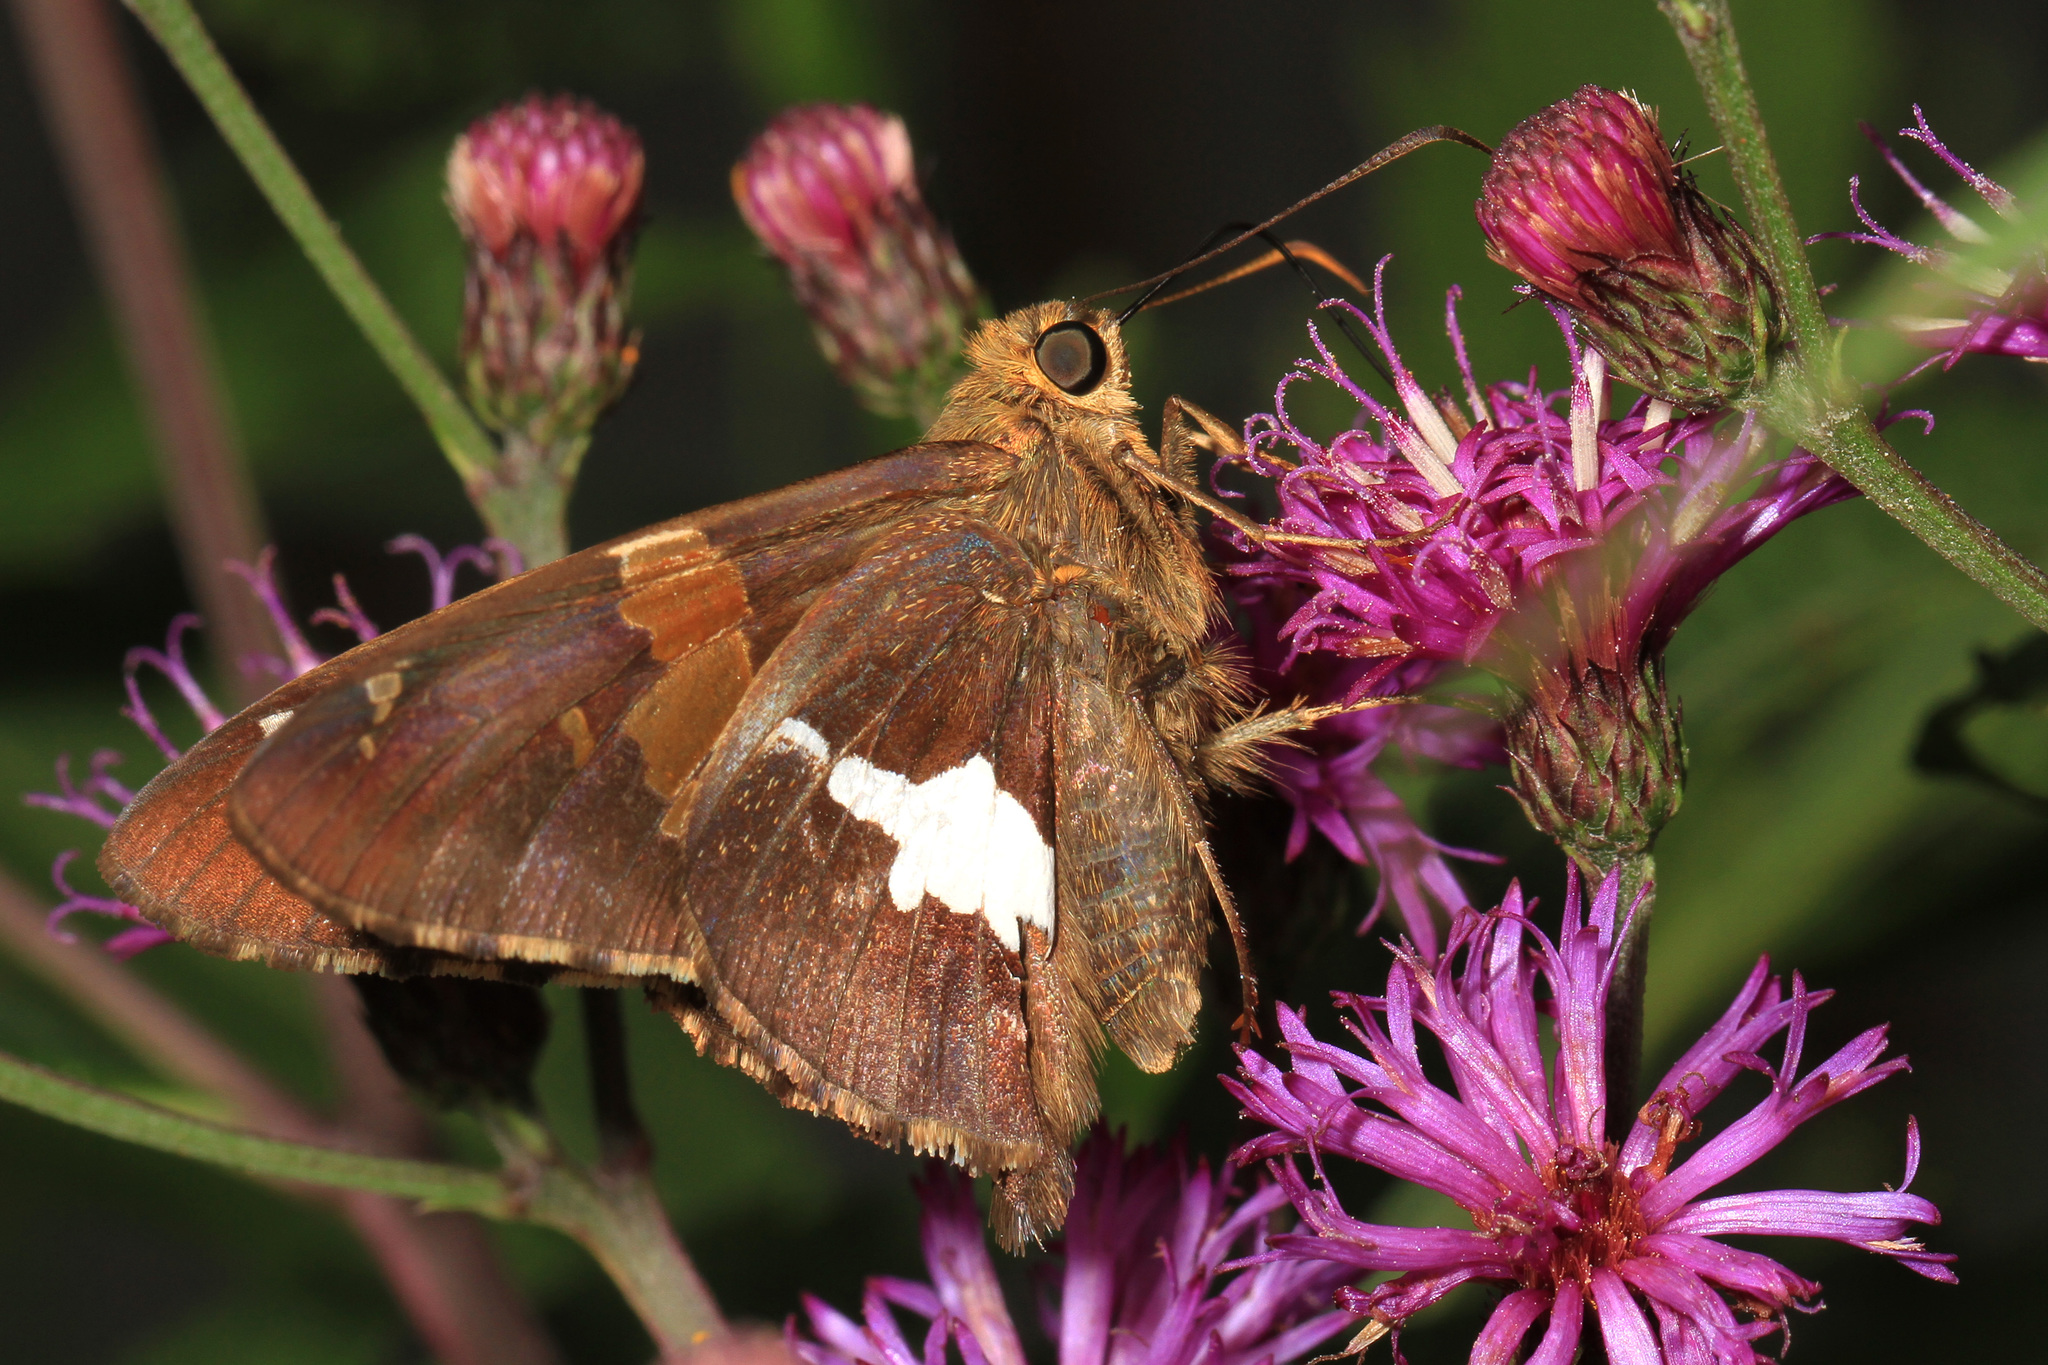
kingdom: Animalia
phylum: Arthropoda
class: Insecta
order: Lepidoptera
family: Hesperiidae
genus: Epargyreus
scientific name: Epargyreus clarus
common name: Silver-spotted skipper
